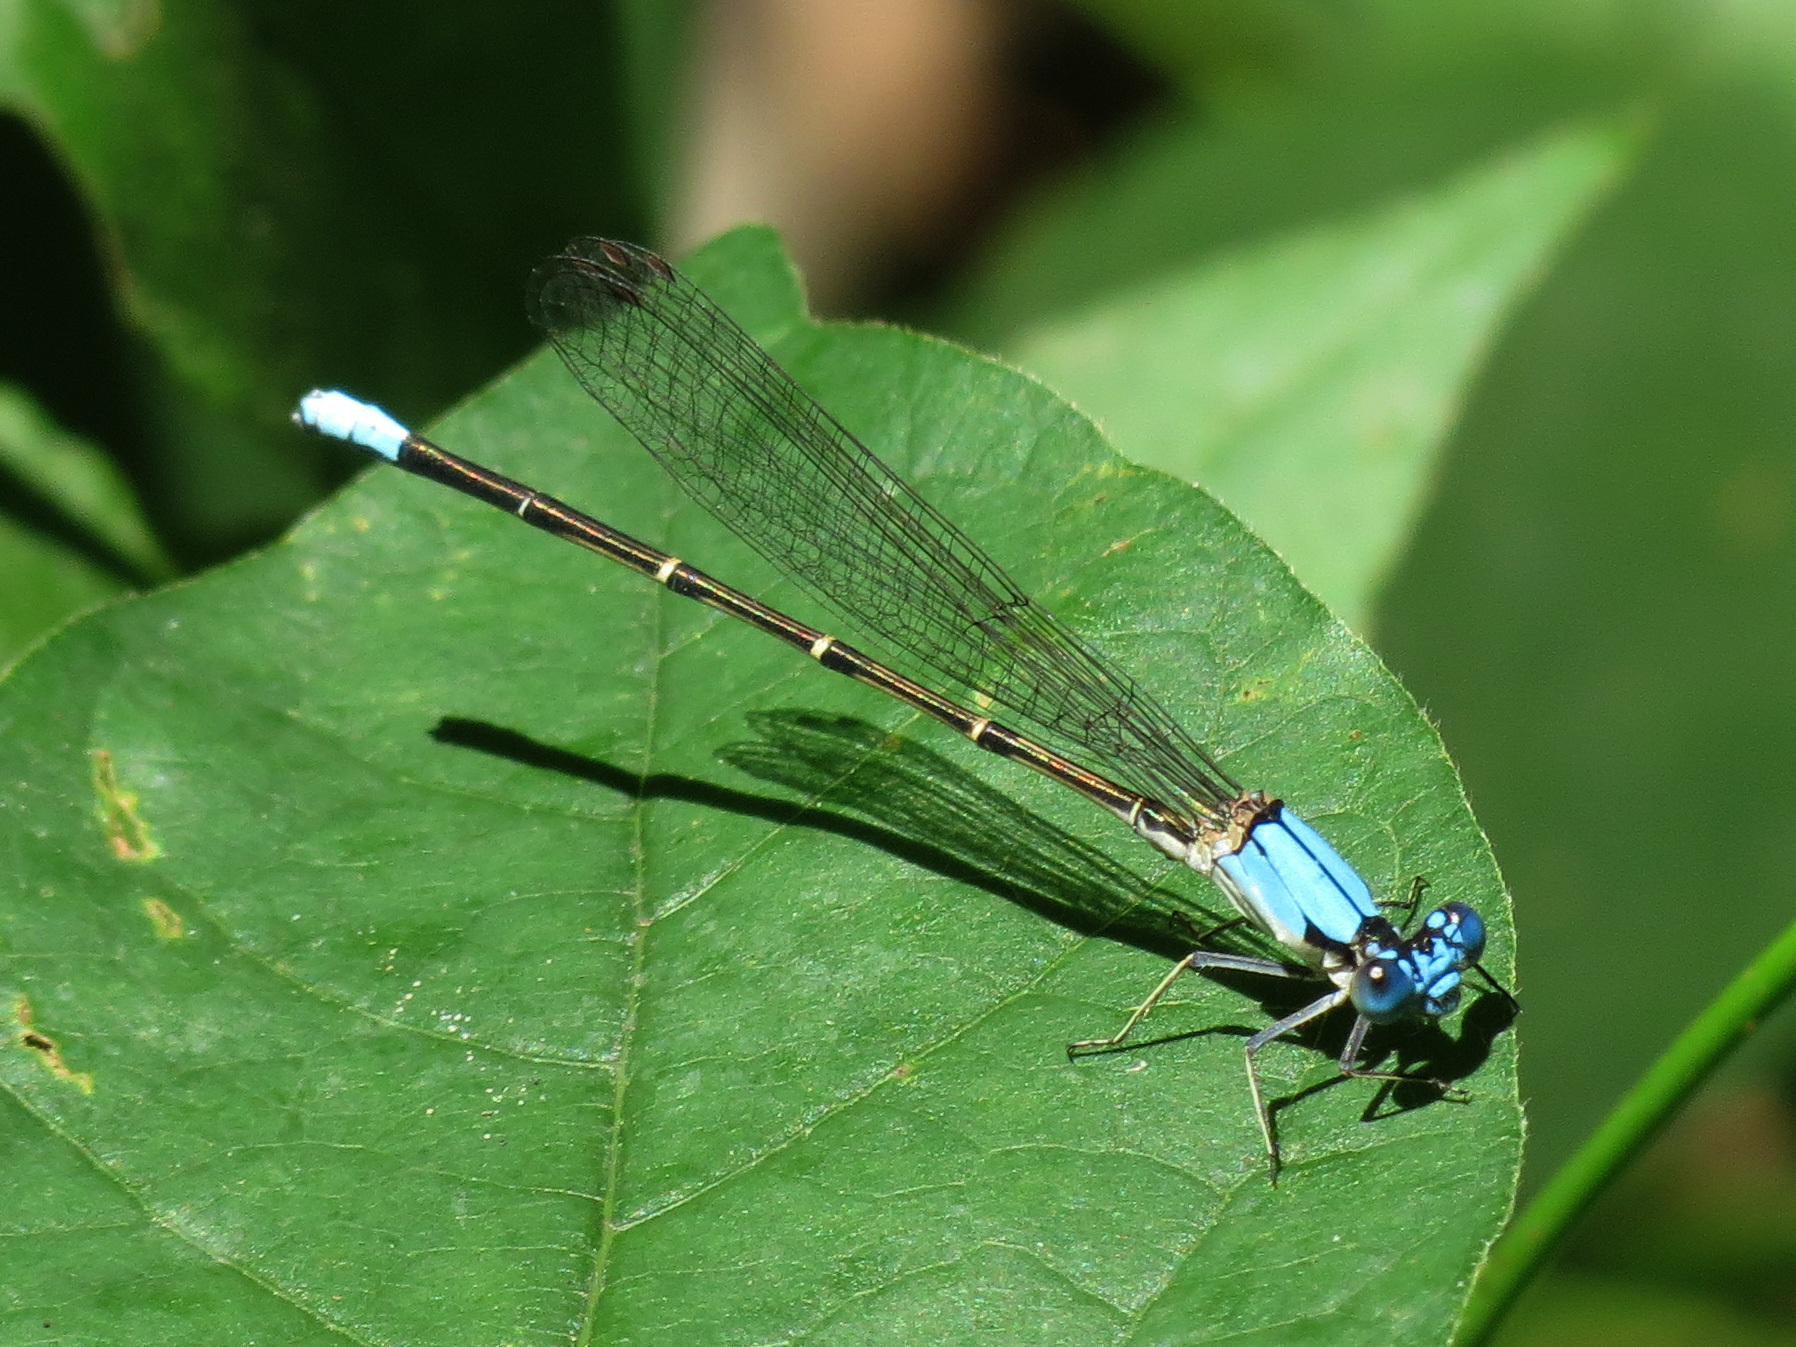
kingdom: Animalia
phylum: Arthropoda
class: Insecta
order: Odonata
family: Coenagrionidae
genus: Argia
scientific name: Argia apicalis
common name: Blue-fronted dancer
